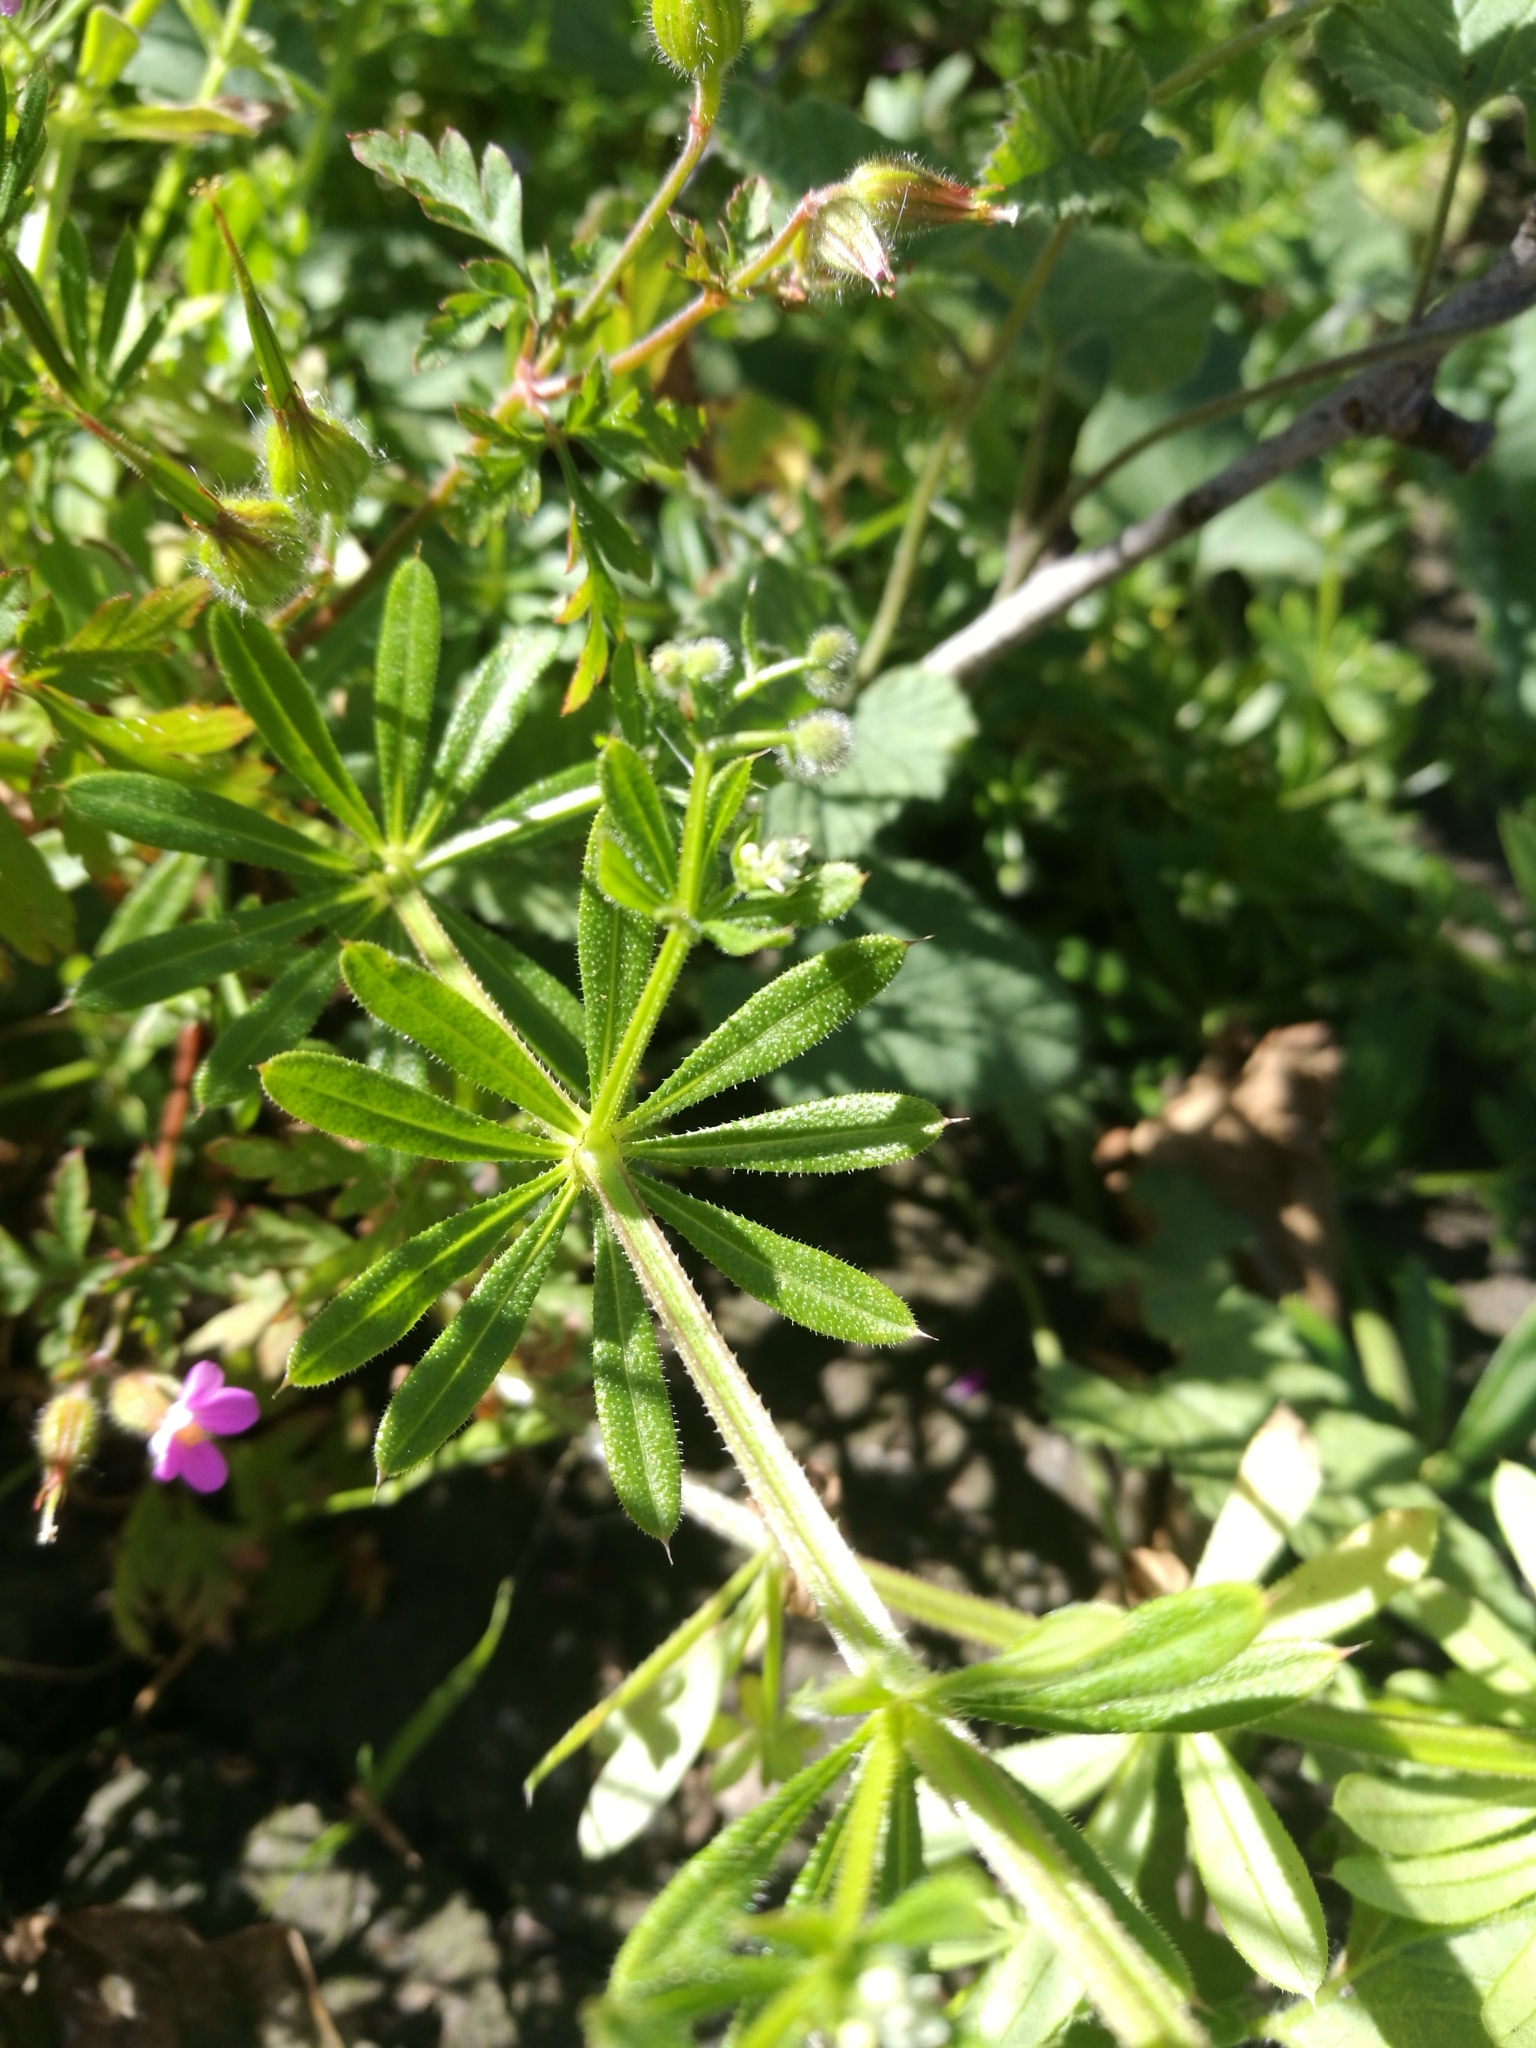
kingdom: Plantae
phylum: Tracheophyta
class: Magnoliopsida
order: Gentianales
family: Rubiaceae
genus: Galium
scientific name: Galium aparine
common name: Cleavers
